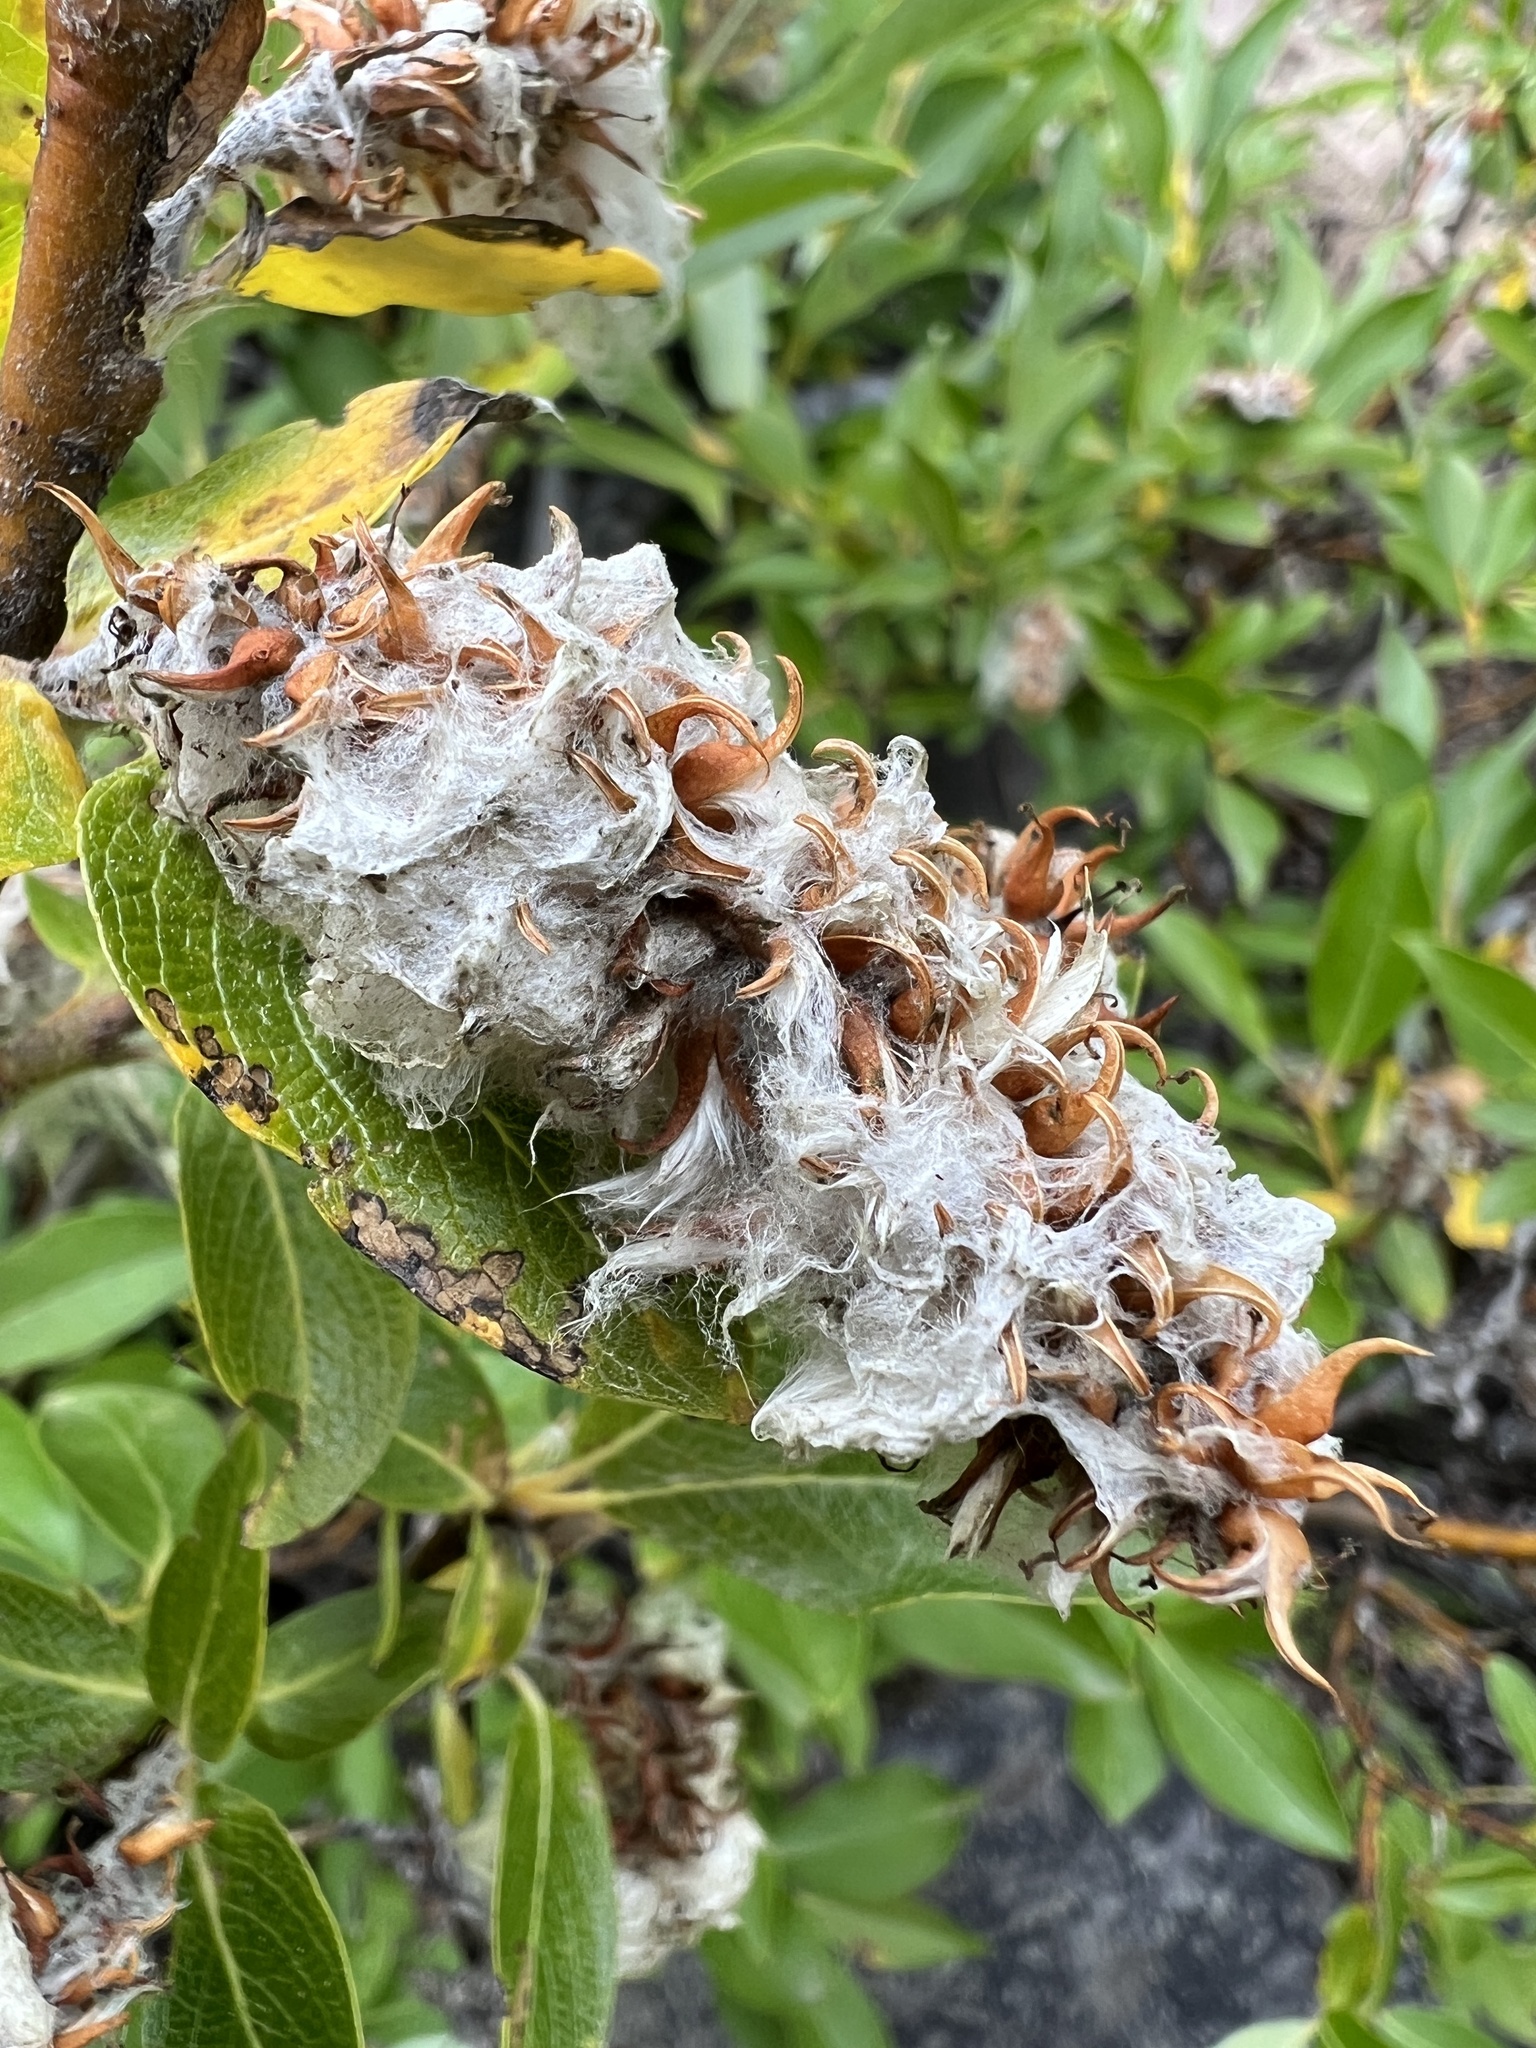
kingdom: Plantae
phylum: Tracheophyta
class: Magnoliopsida
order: Malpighiales
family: Salicaceae
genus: Salix
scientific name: Salix barclayi
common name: Mountain willow
